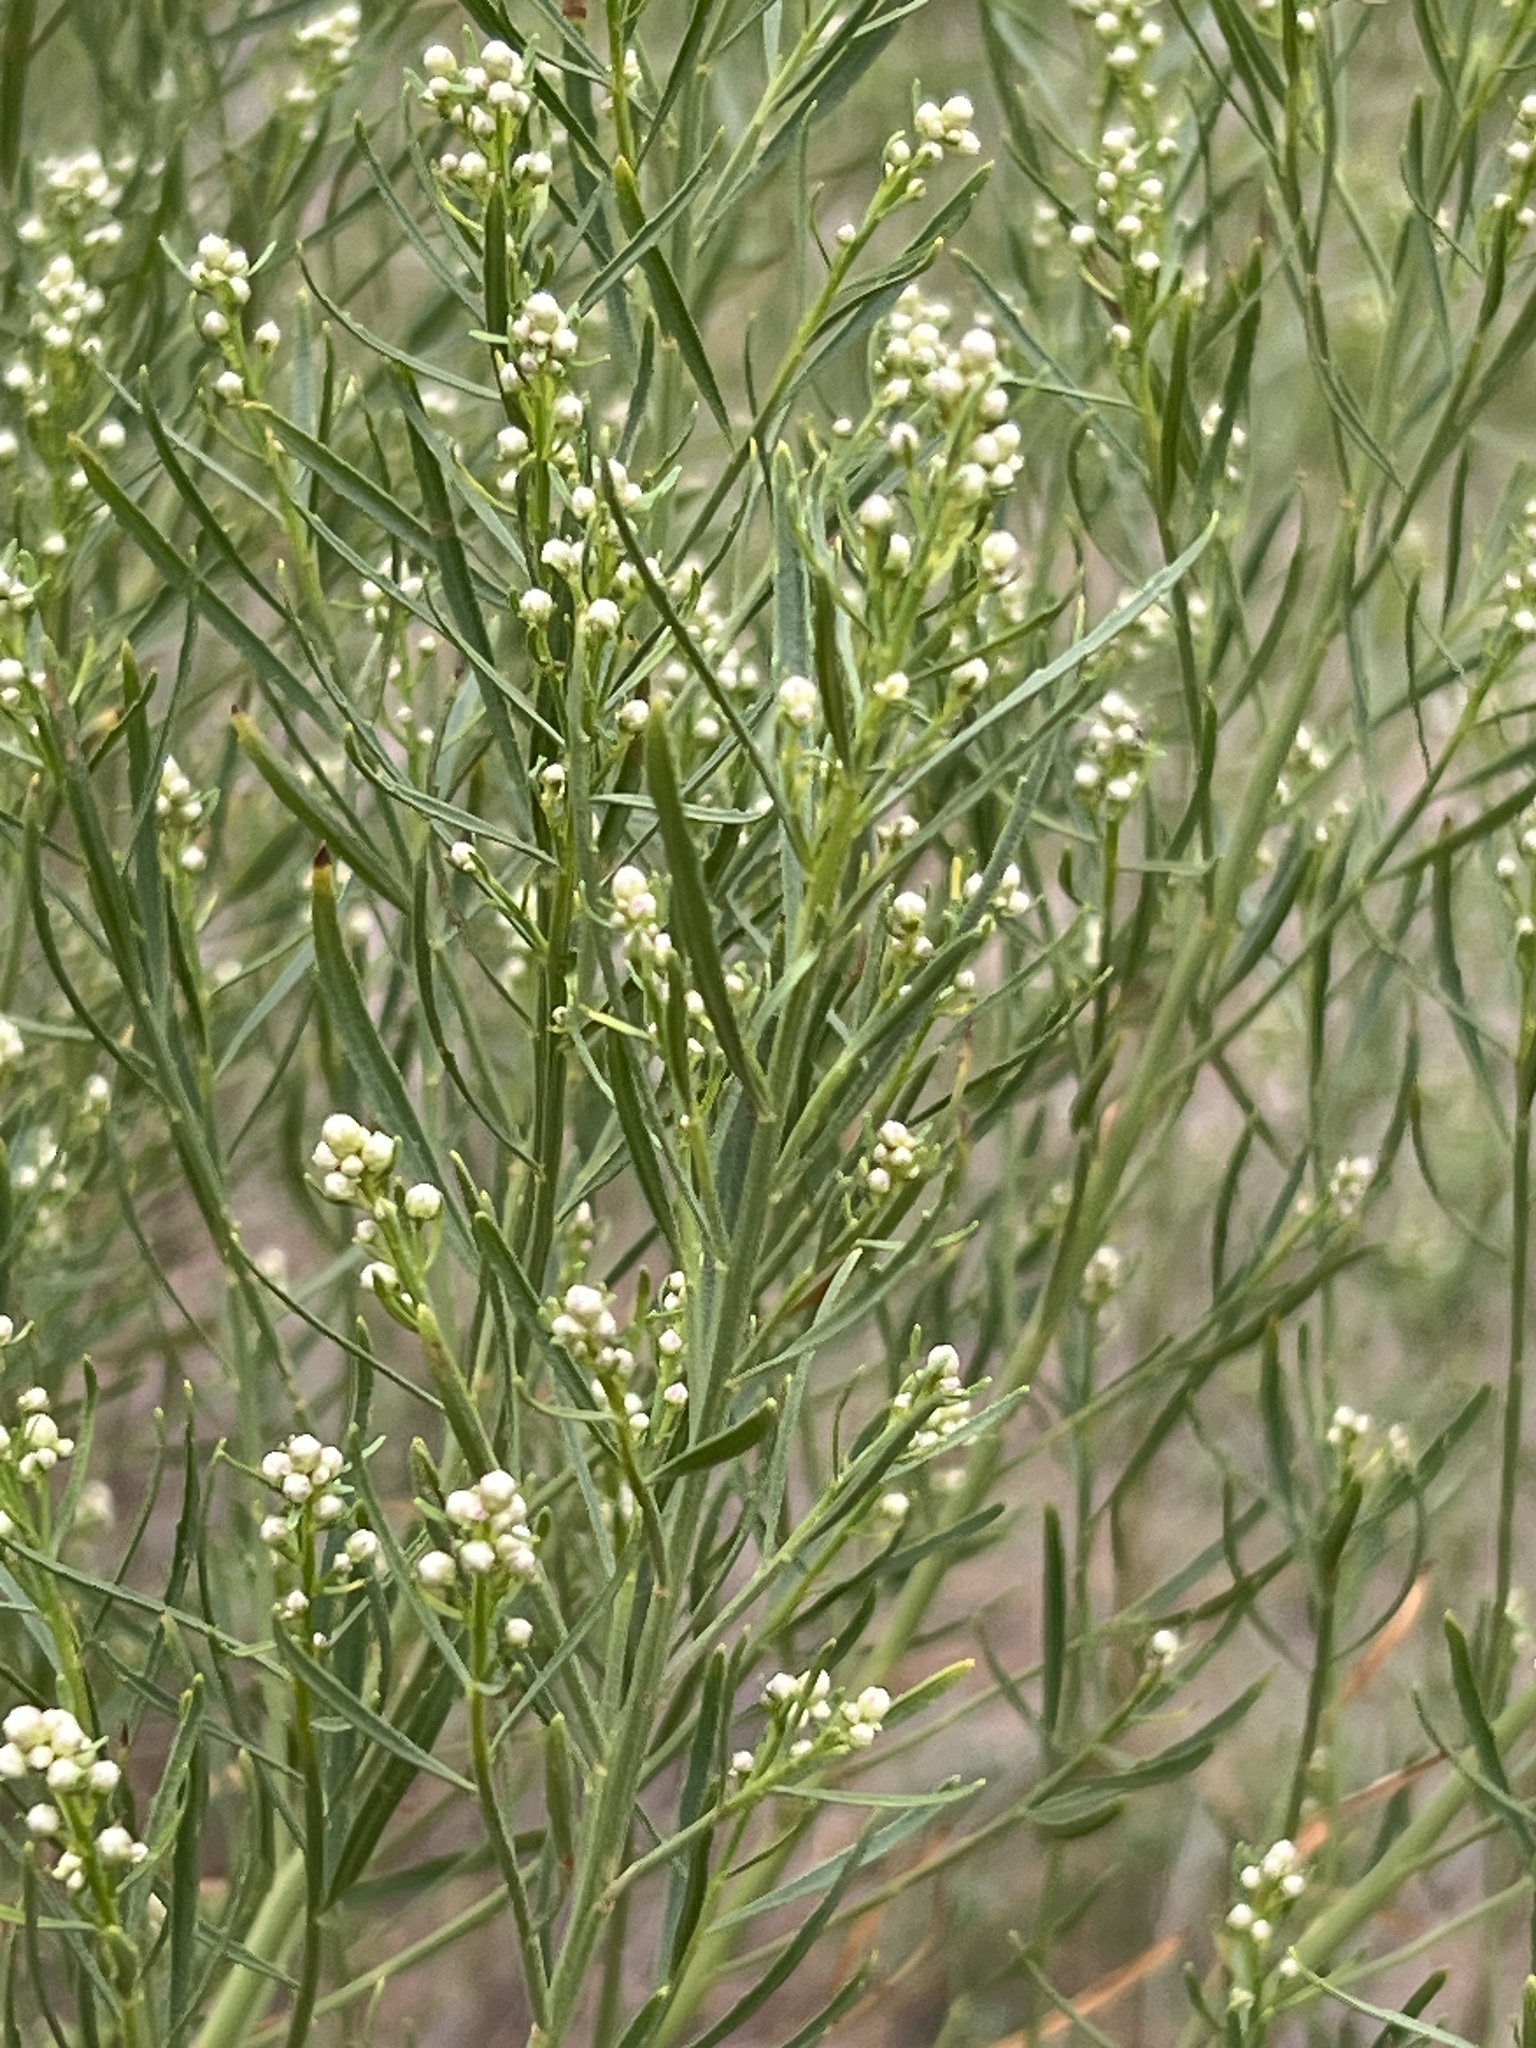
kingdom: Plantae
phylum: Tracheophyta
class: Magnoliopsida
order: Asterales
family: Asteraceae
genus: Baccharis
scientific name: Baccharis neglecta
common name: Roosevelt-weed
